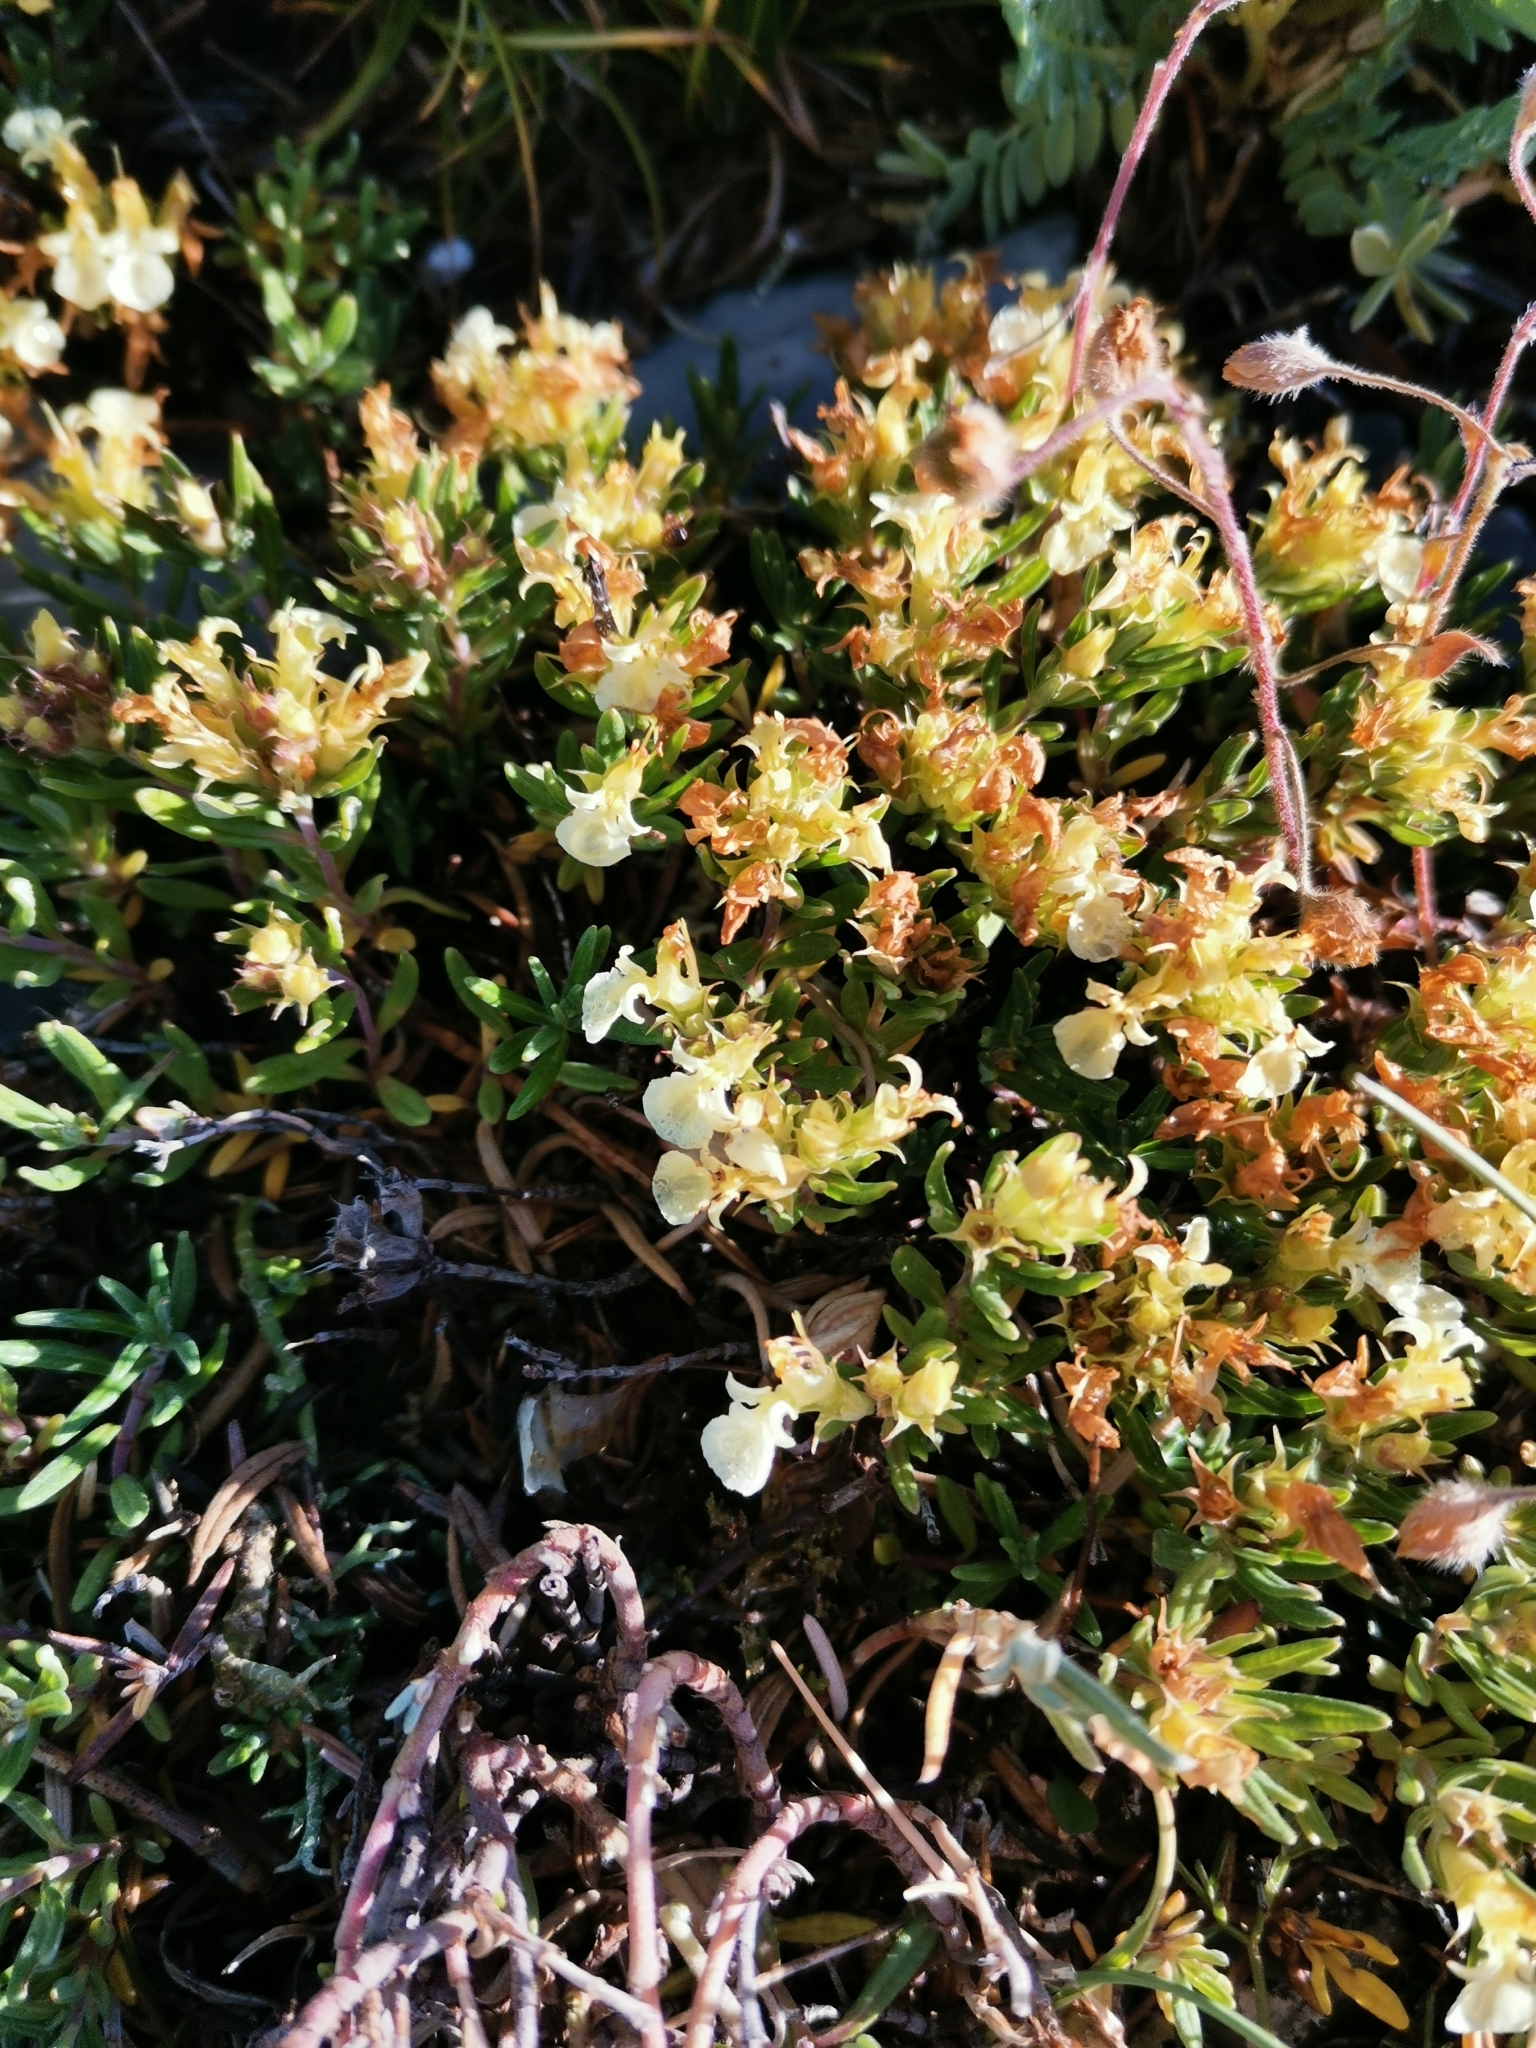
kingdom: Plantae
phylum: Tracheophyta
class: Magnoliopsida
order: Lamiales
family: Lamiaceae
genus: Teucrium
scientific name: Teucrium montanum
